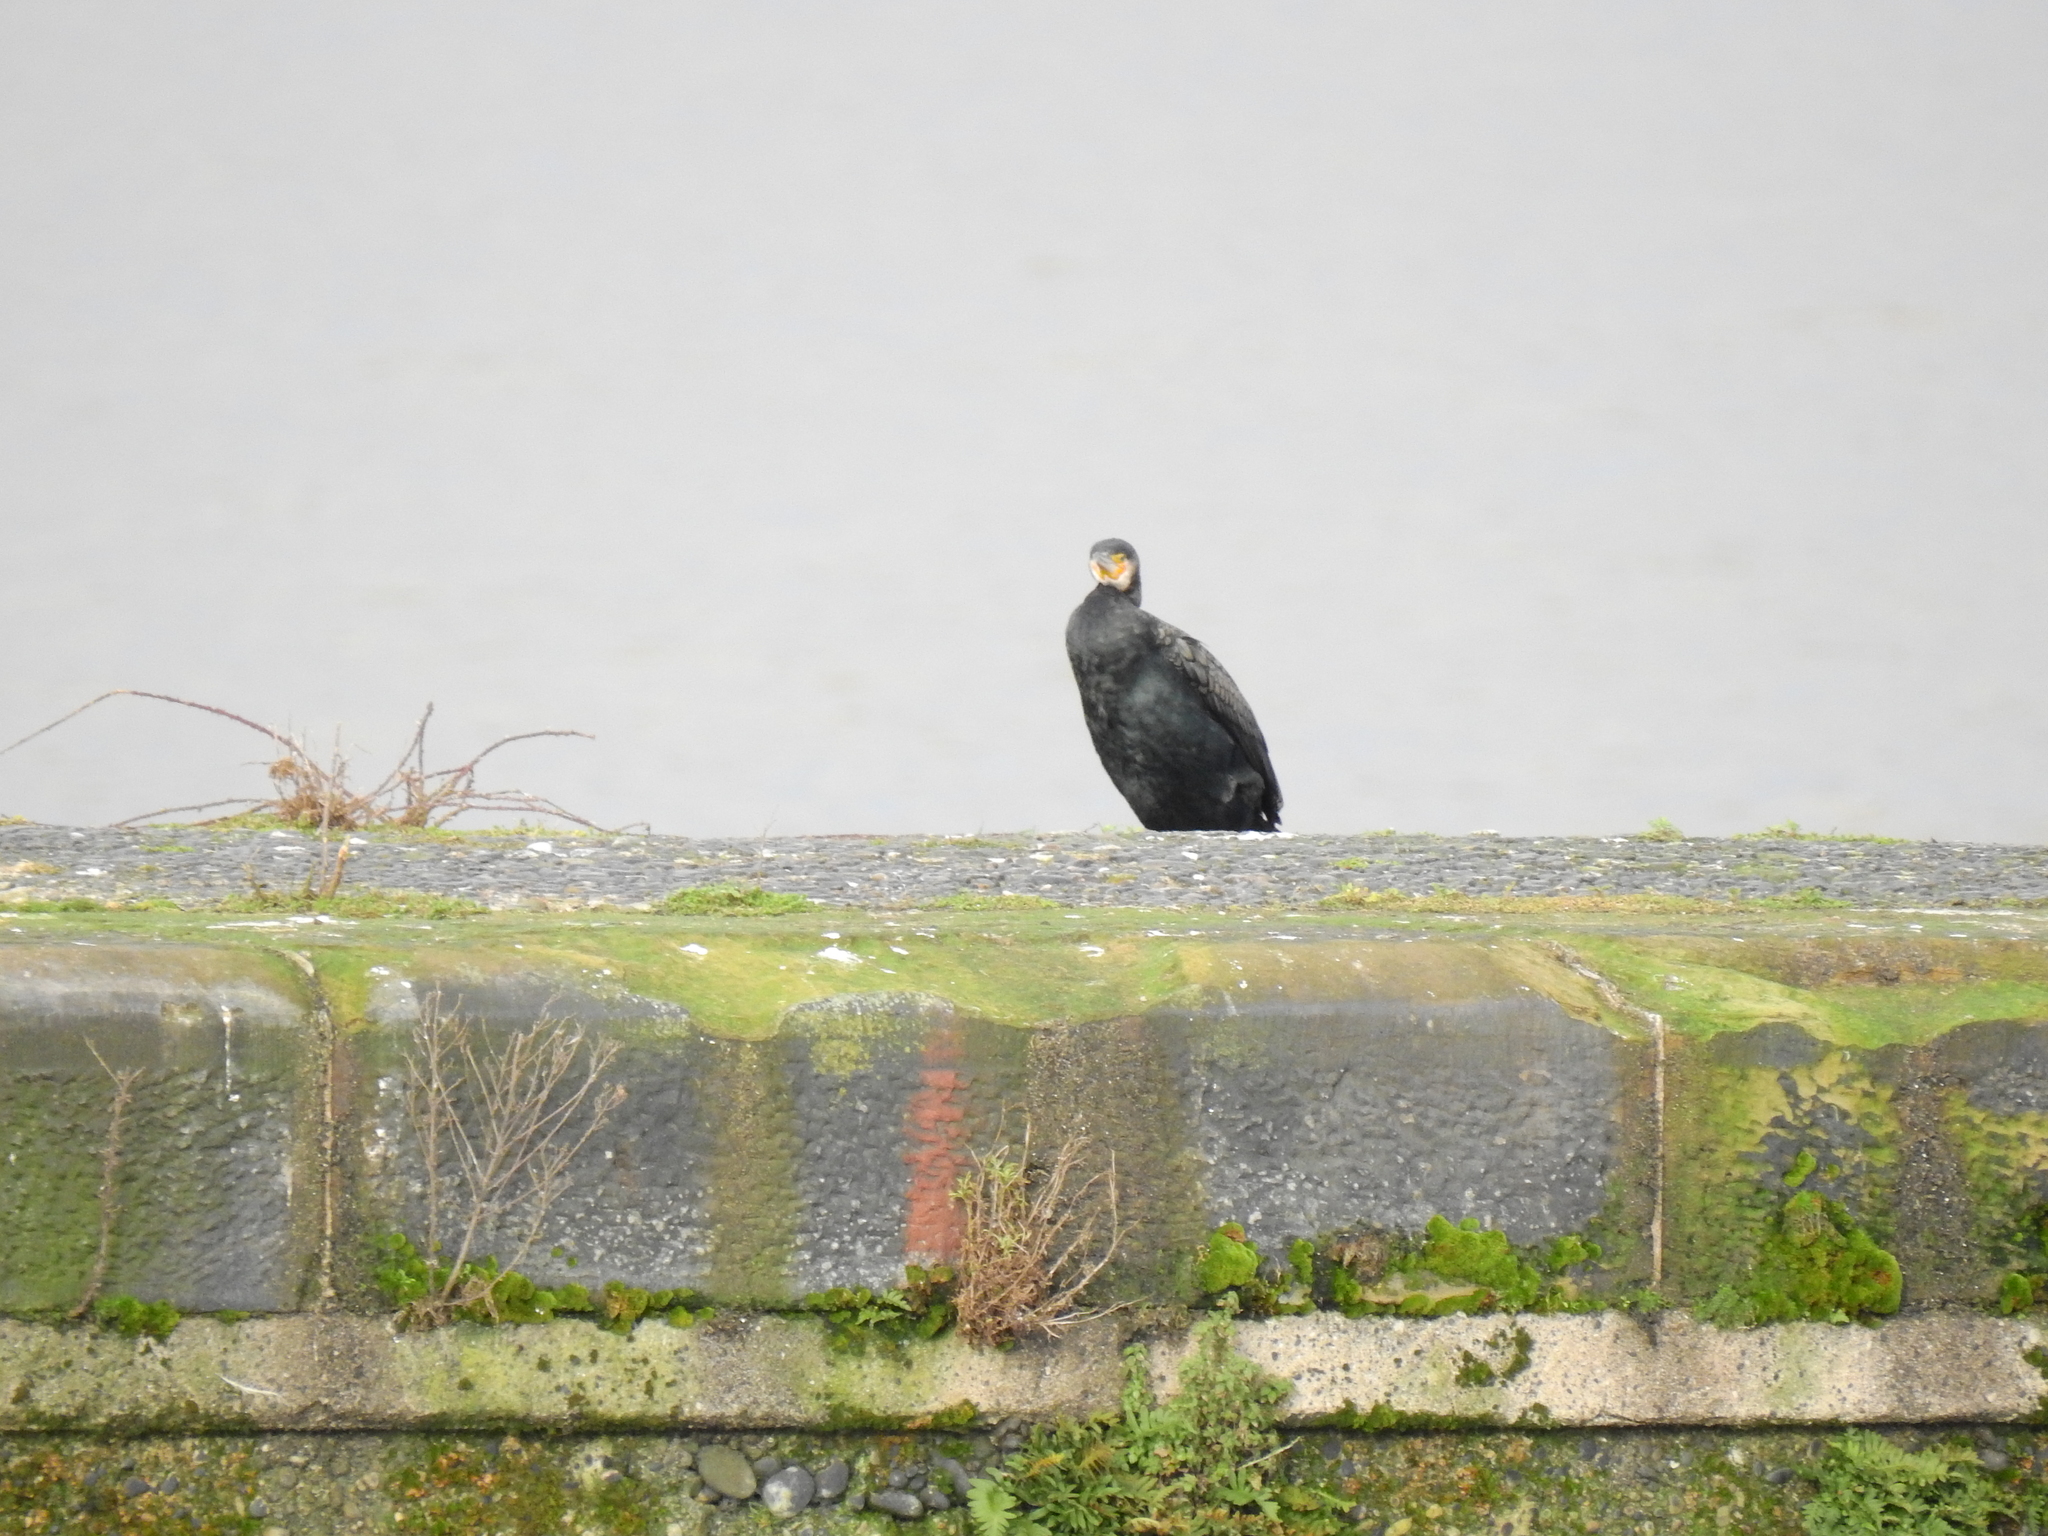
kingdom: Animalia
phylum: Chordata
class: Aves
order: Suliformes
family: Phalacrocoracidae
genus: Phalacrocorax
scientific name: Phalacrocorax carbo
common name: Great cormorant
